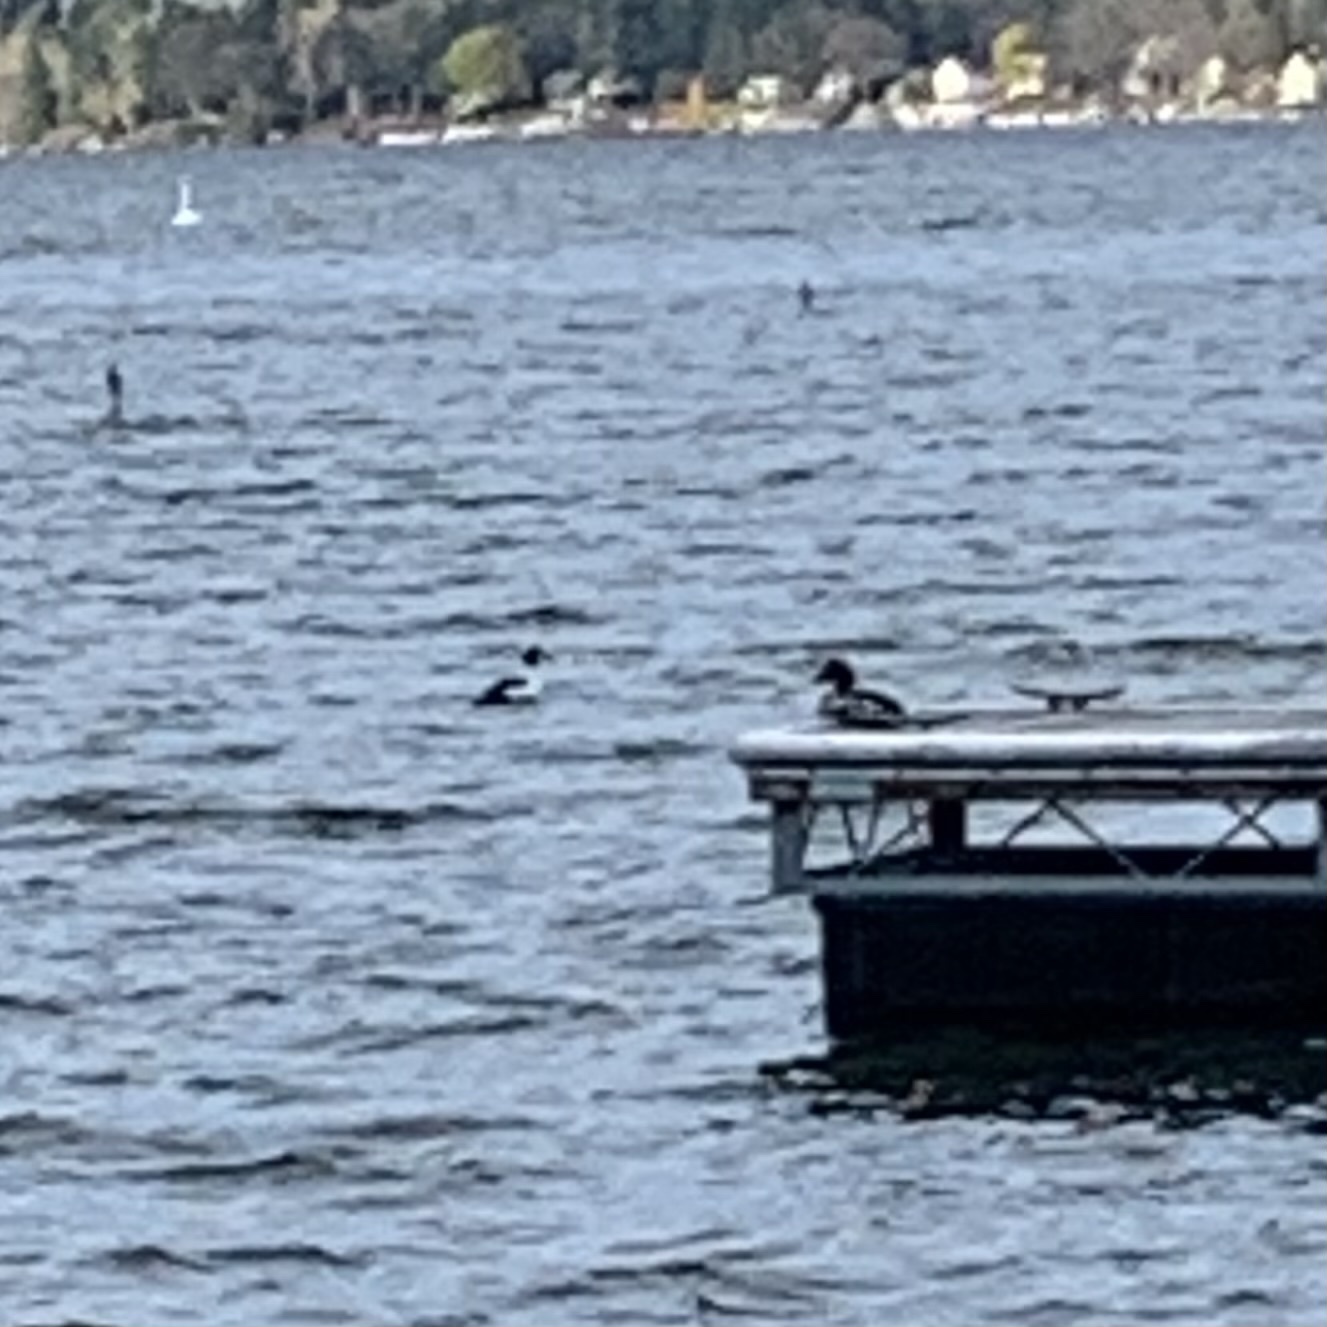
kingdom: Animalia
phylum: Chordata
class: Aves
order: Anseriformes
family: Anatidae
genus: Bucephala
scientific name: Bucephala clangula
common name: Common goldeneye
